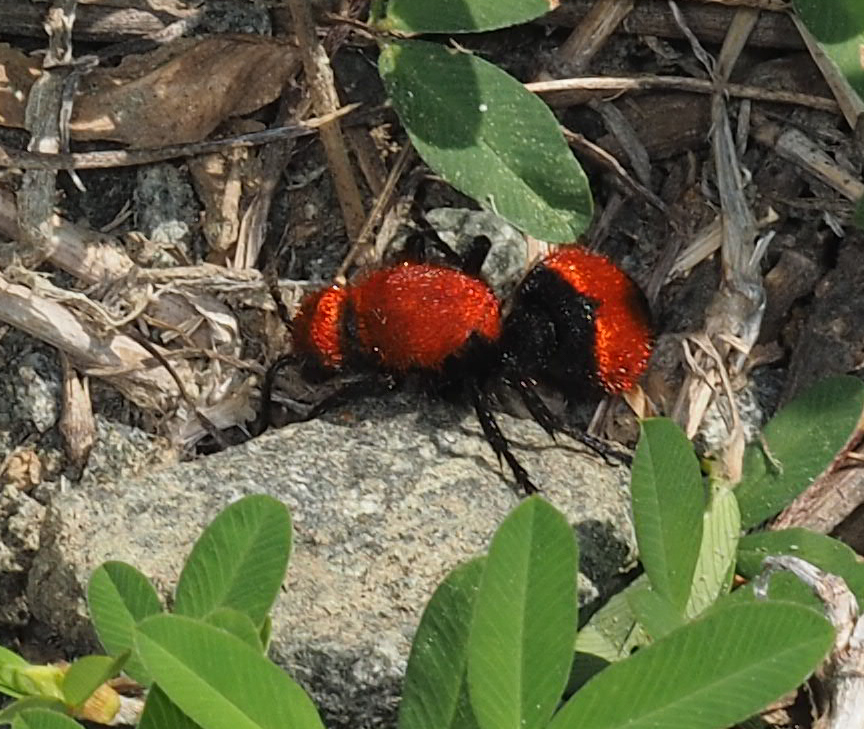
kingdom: Animalia
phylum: Arthropoda
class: Insecta
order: Hymenoptera
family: Mutillidae
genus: Dasymutilla
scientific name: Dasymutilla occidentalis
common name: Common eastern velvet ant
